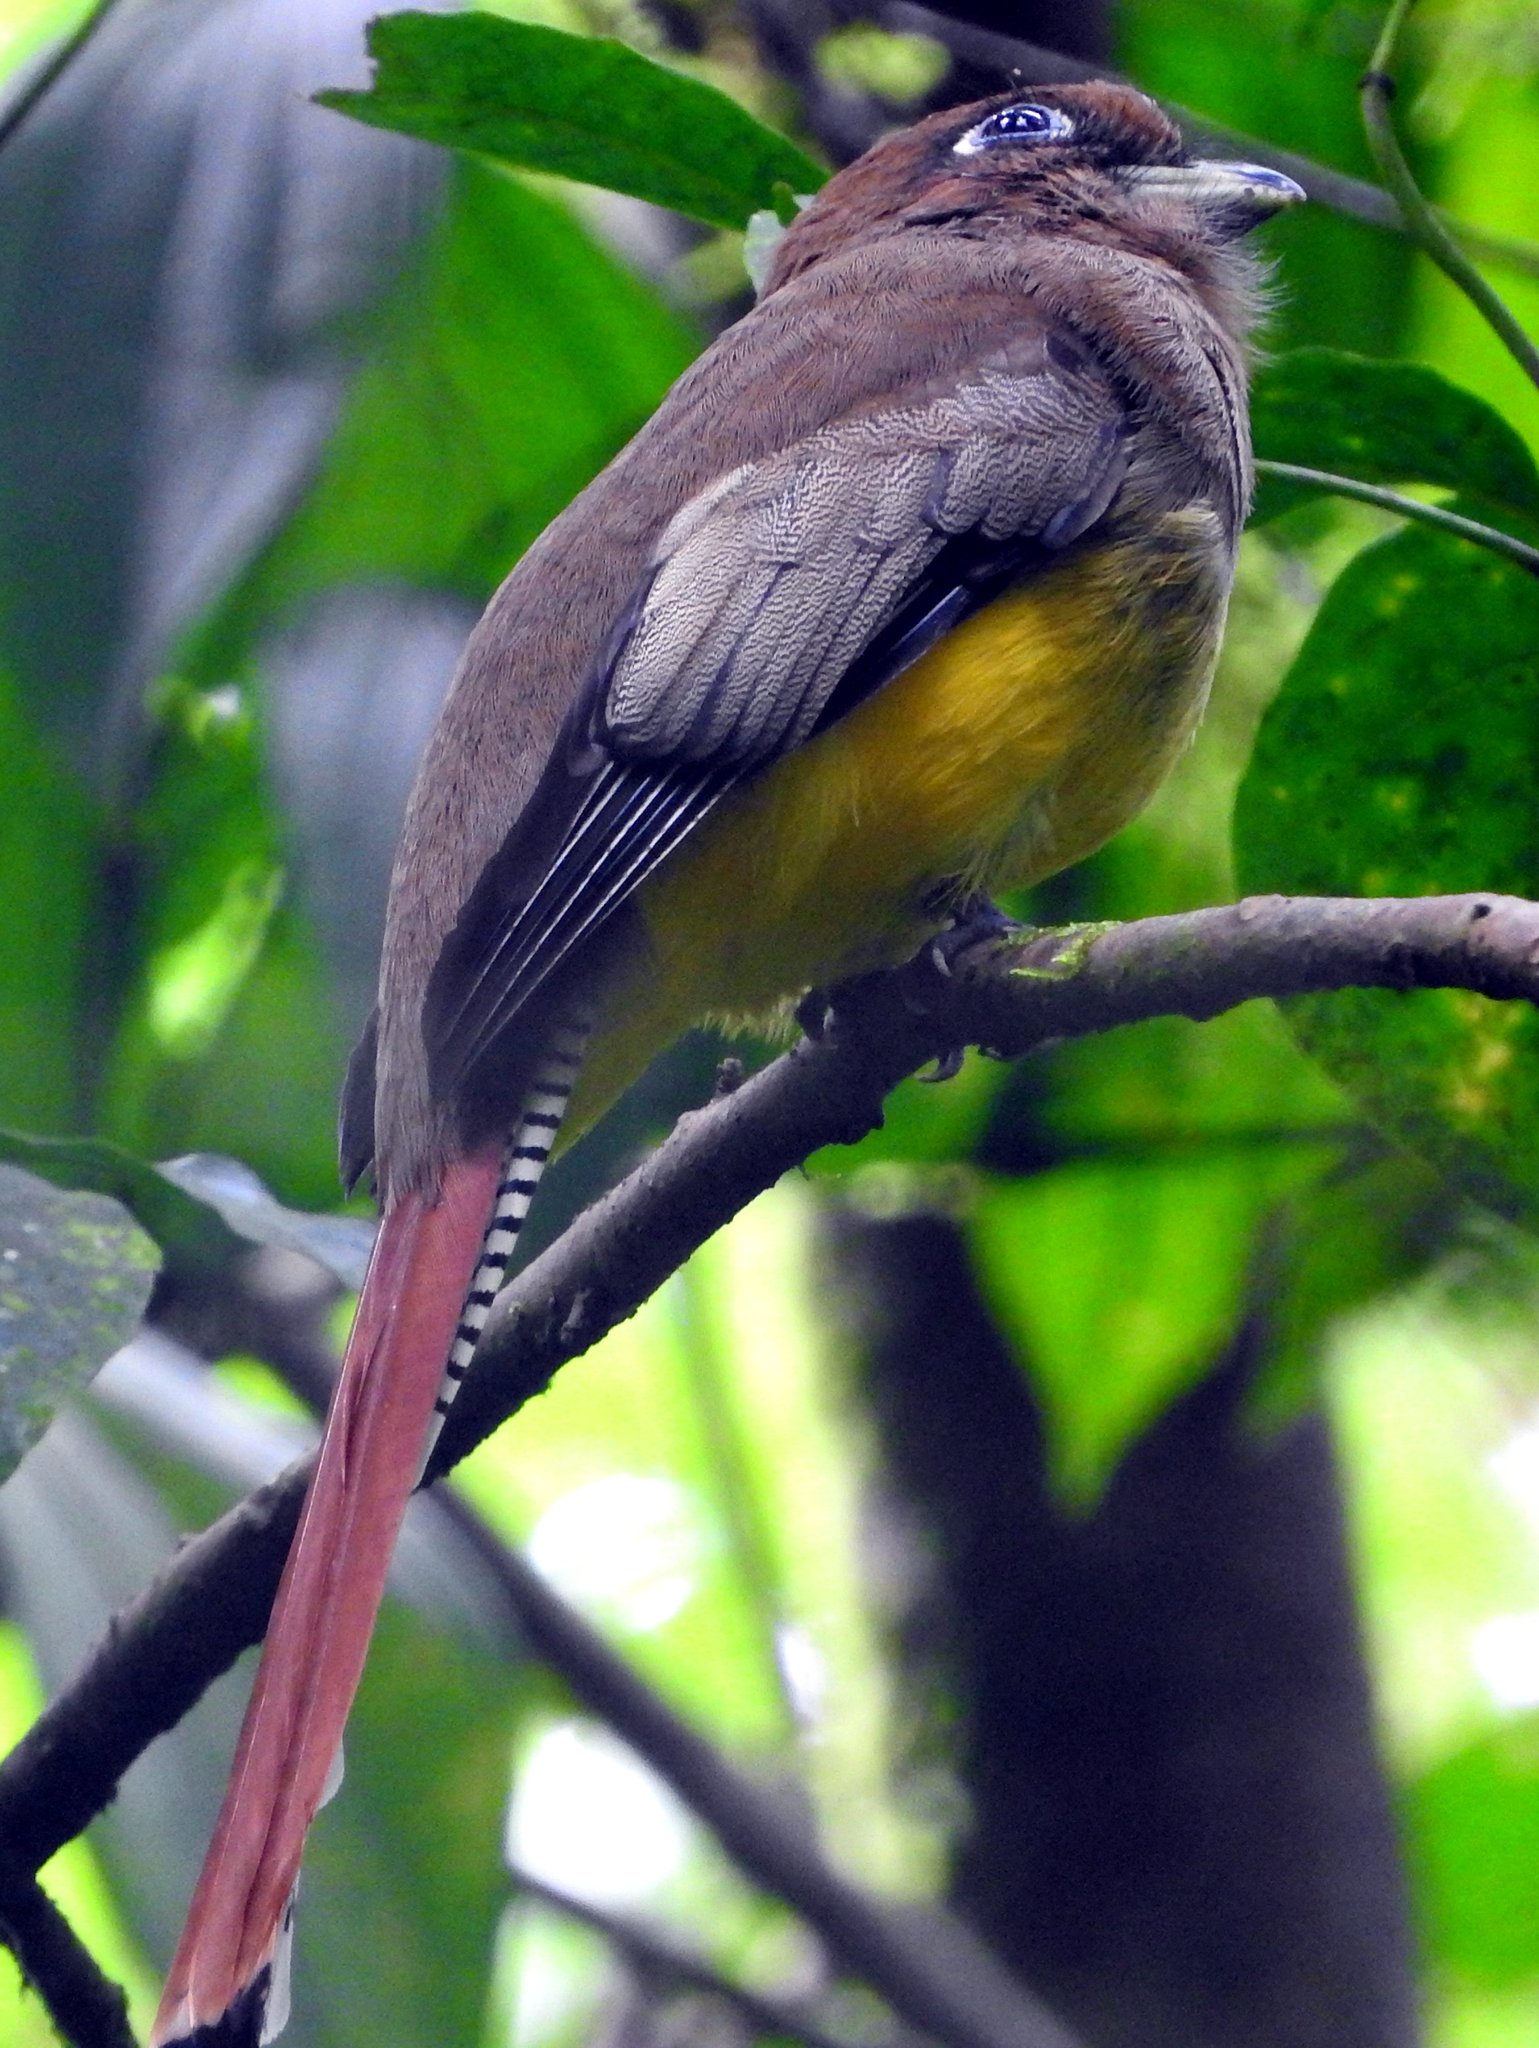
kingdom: Animalia
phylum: Chordata
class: Aves
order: Trogoniformes
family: Trogonidae
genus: Trogon
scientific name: Trogon rufus
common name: Black-throated trogon
